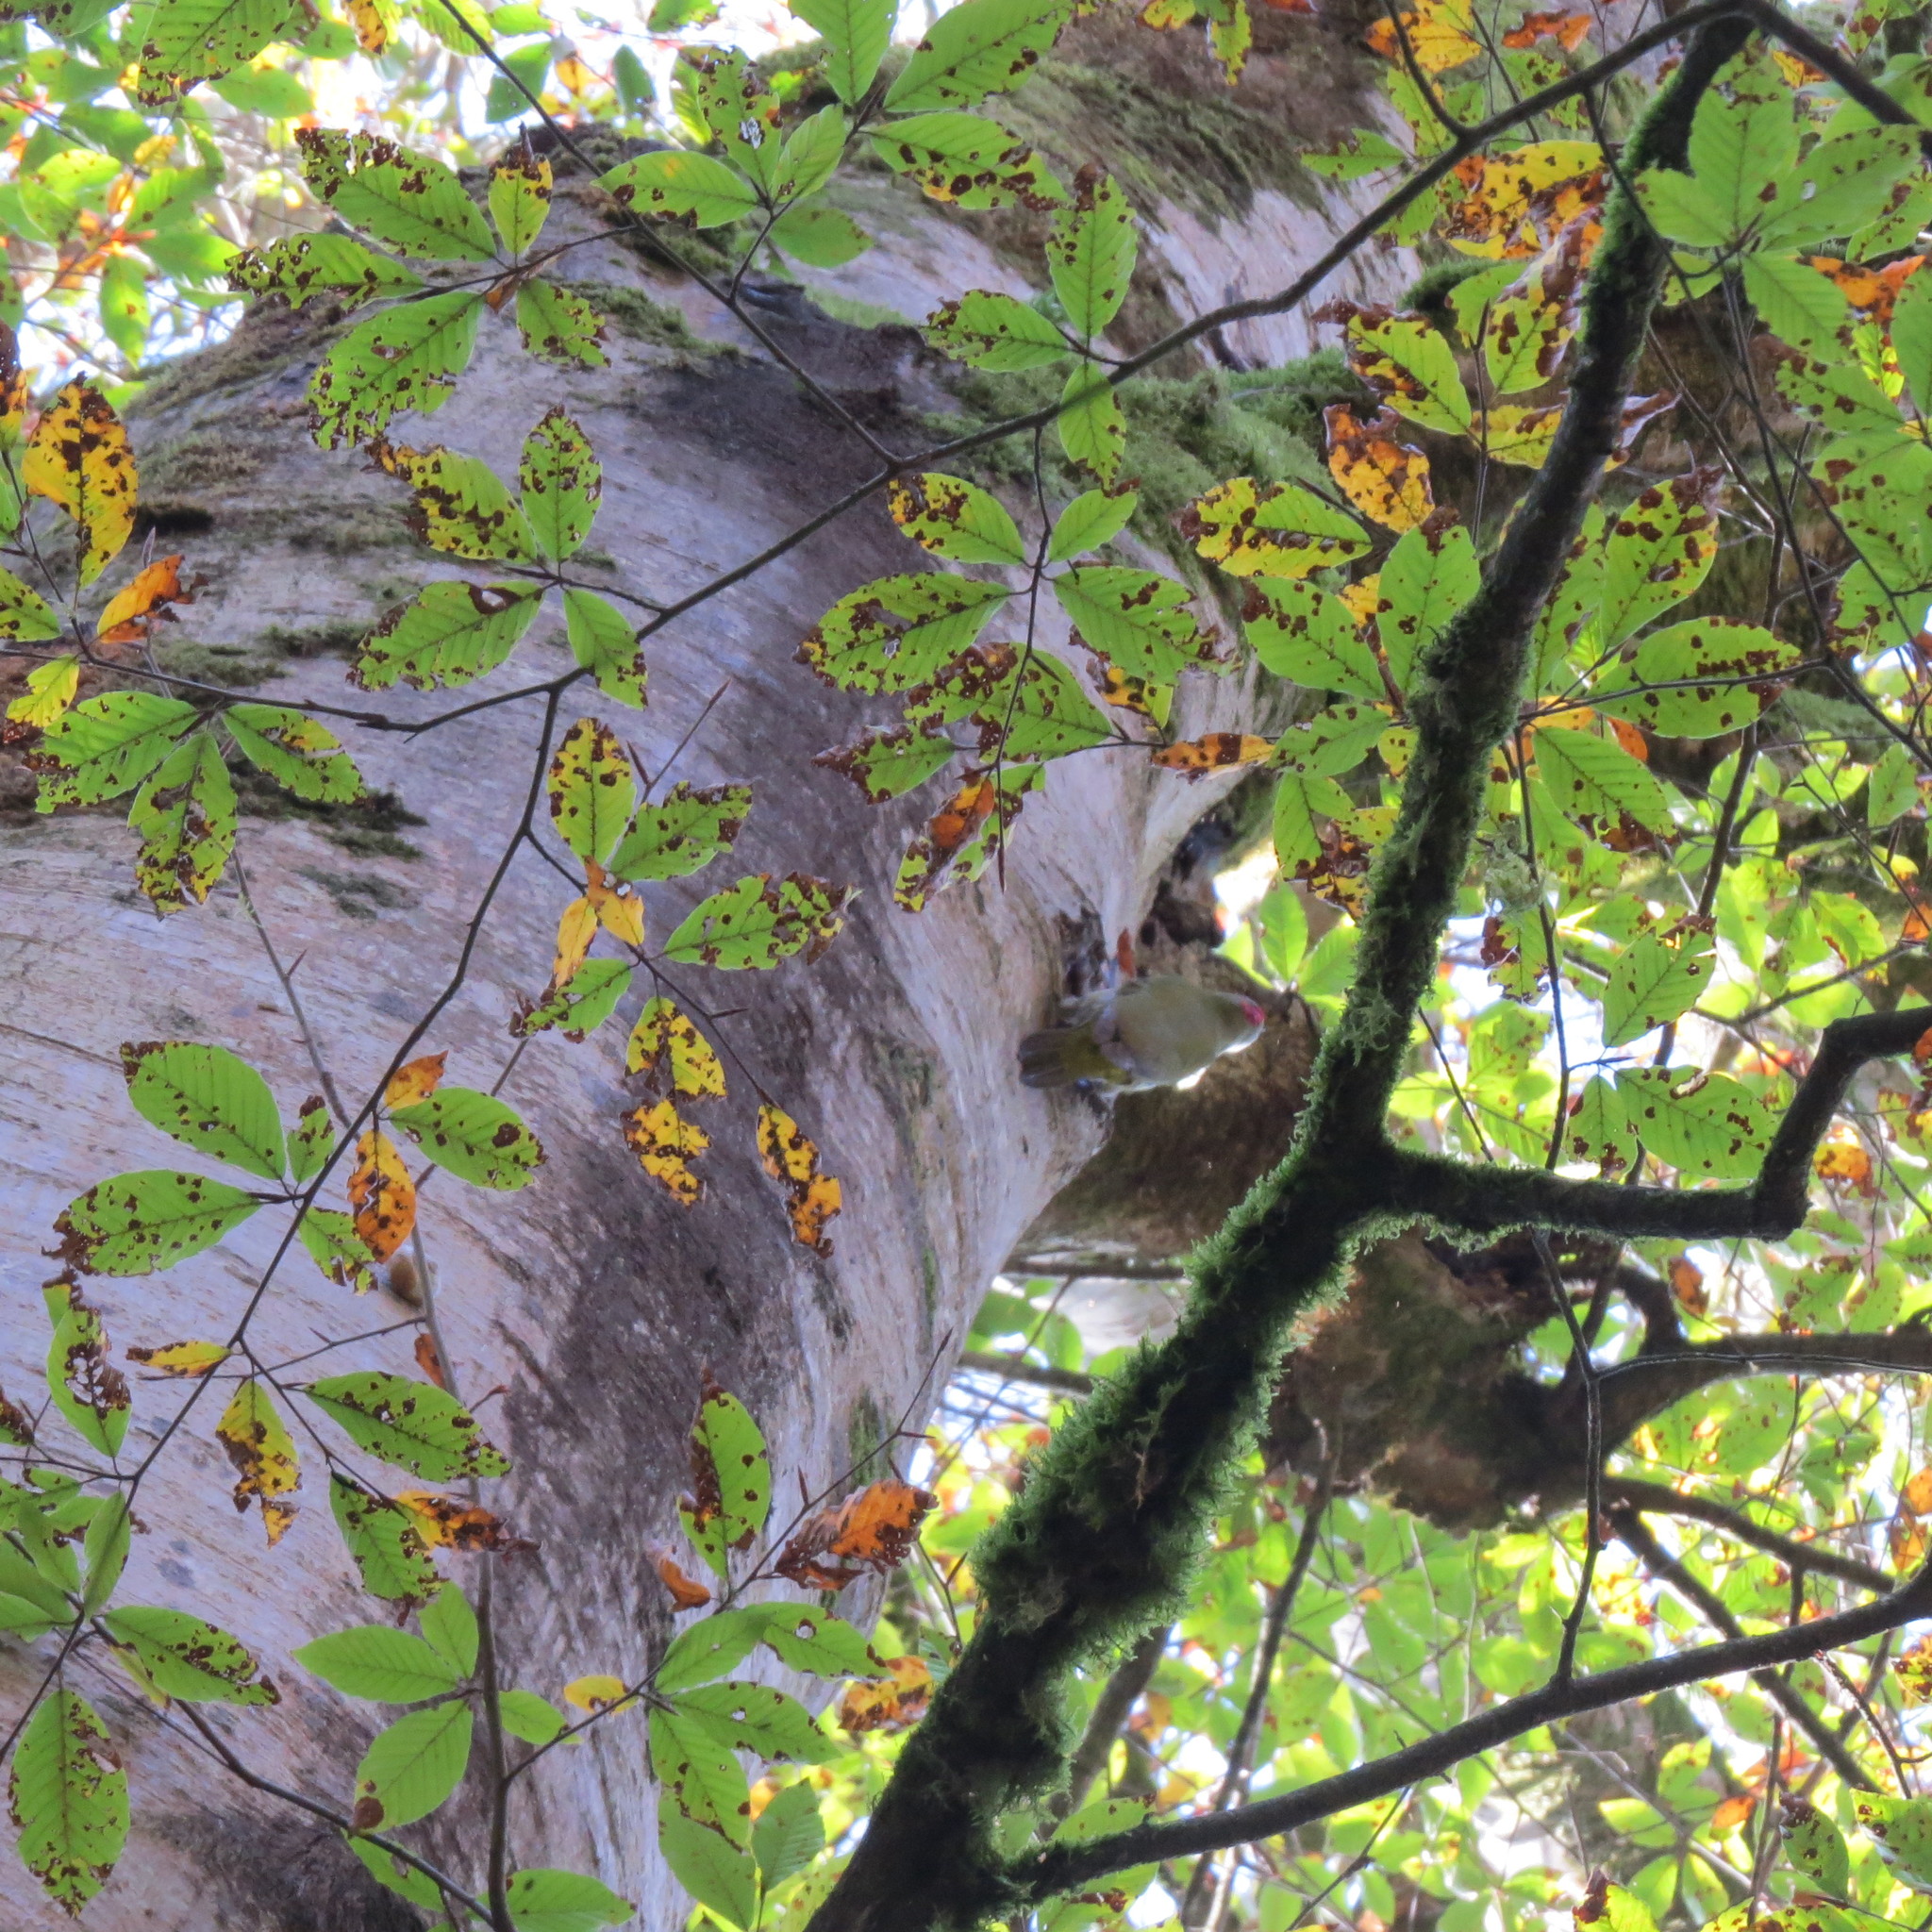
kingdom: Animalia
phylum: Chordata
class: Aves
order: Piciformes
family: Picidae
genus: Picus
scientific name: Picus viridis
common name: European green woodpecker
